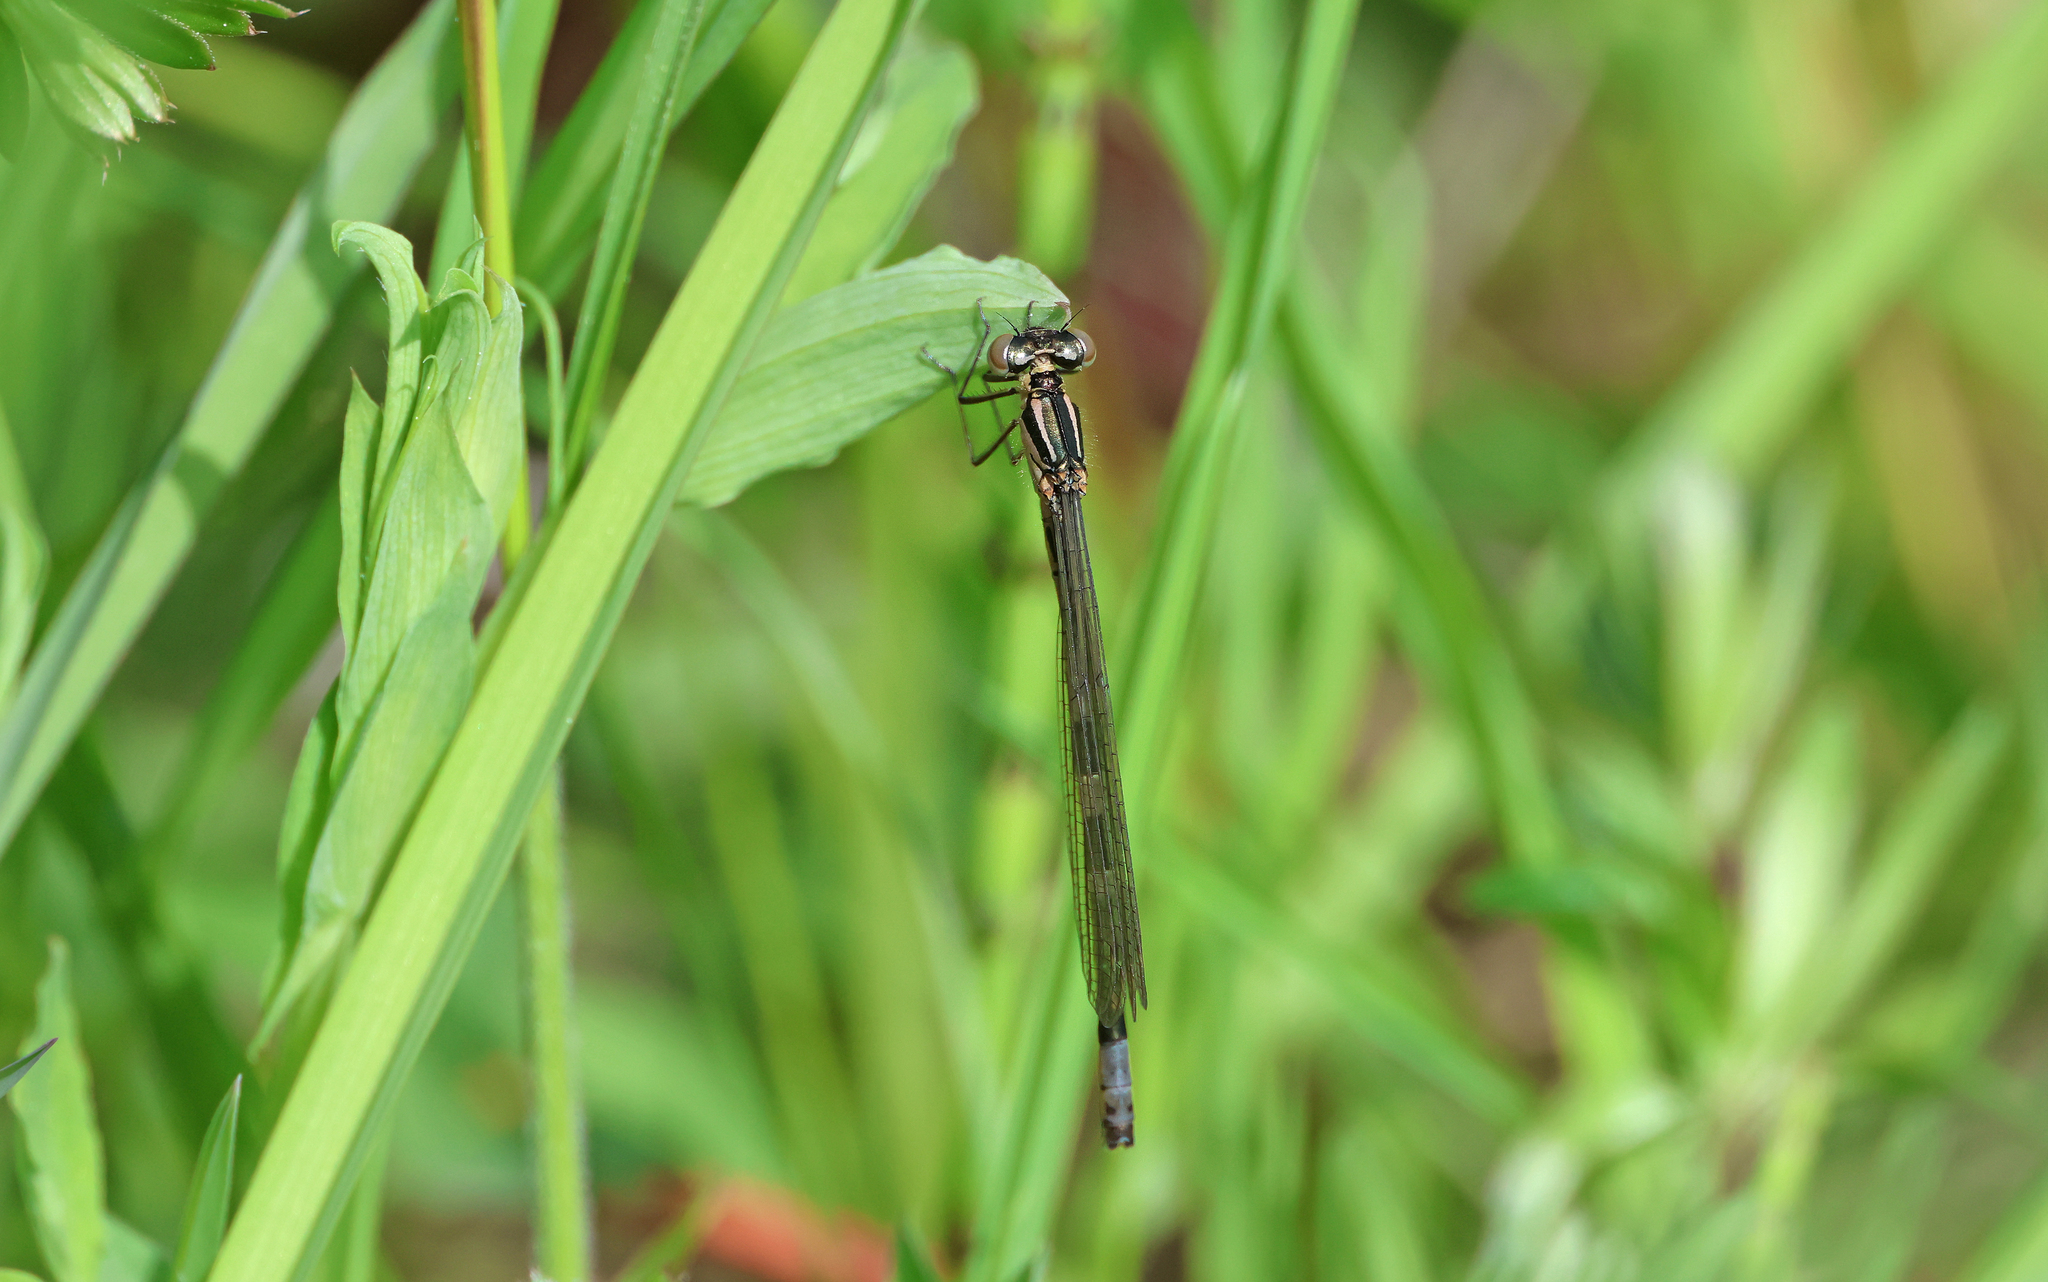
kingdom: Animalia
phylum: Arthropoda
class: Insecta
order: Odonata
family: Coenagrionidae
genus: Coenagrion
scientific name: Coenagrion hastulatum
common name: Spearhead bluet
